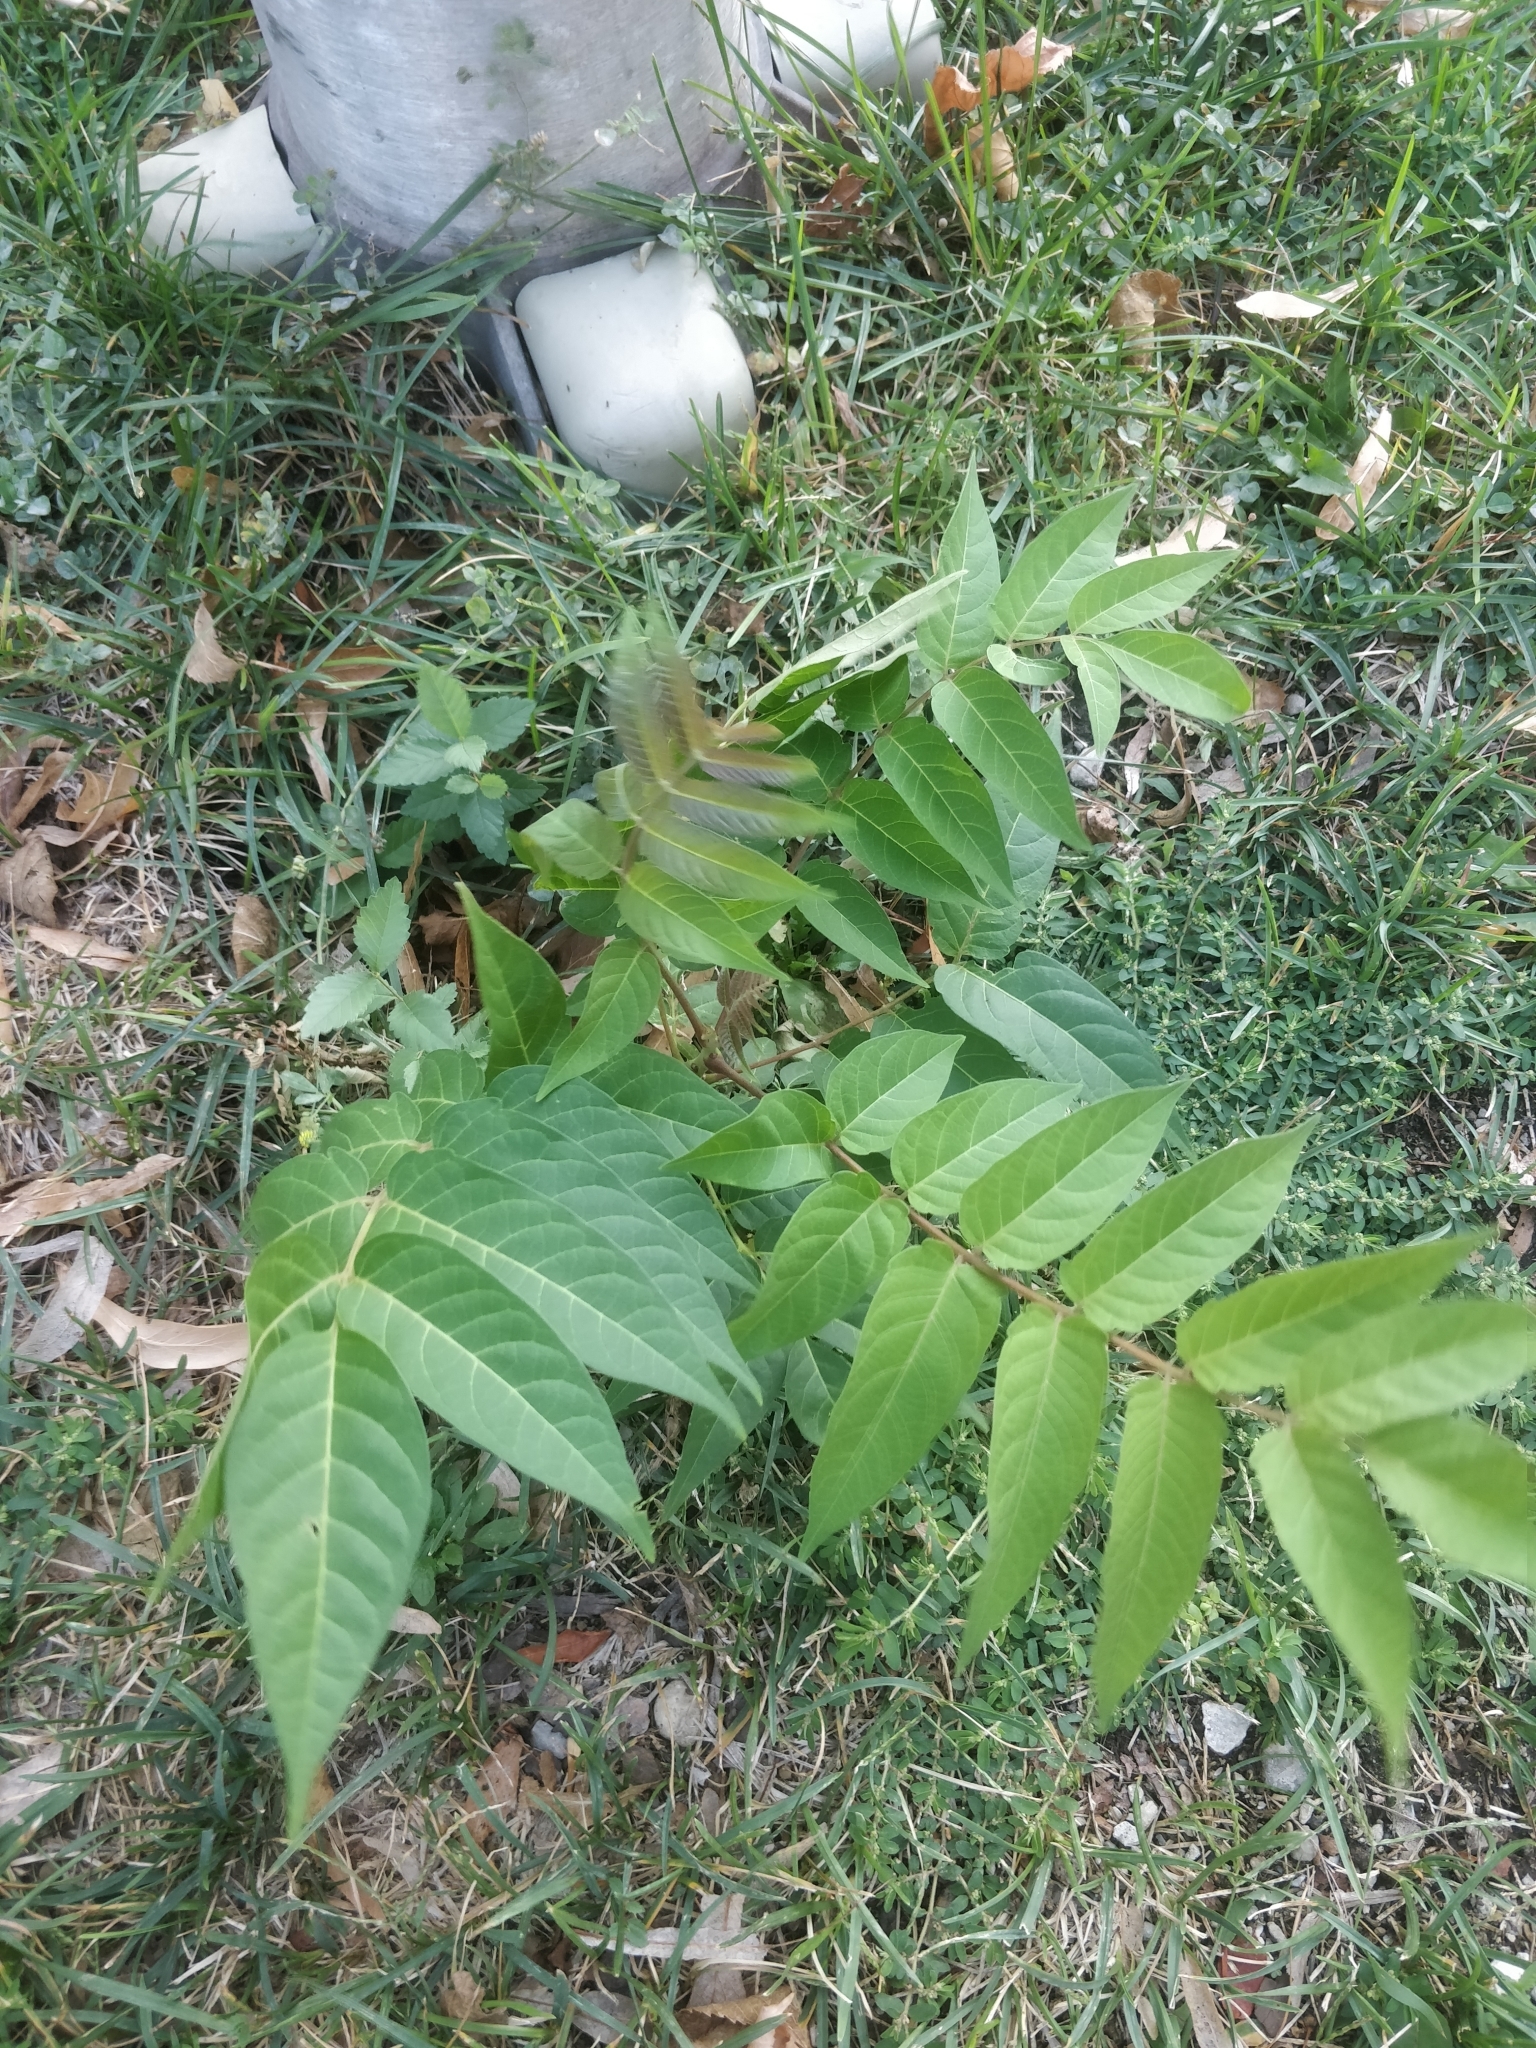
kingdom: Plantae
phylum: Tracheophyta
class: Magnoliopsida
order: Sapindales
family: Simaroubaceae
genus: Ailanthus
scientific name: Ailanthus altissima
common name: Tree-of-heaven
